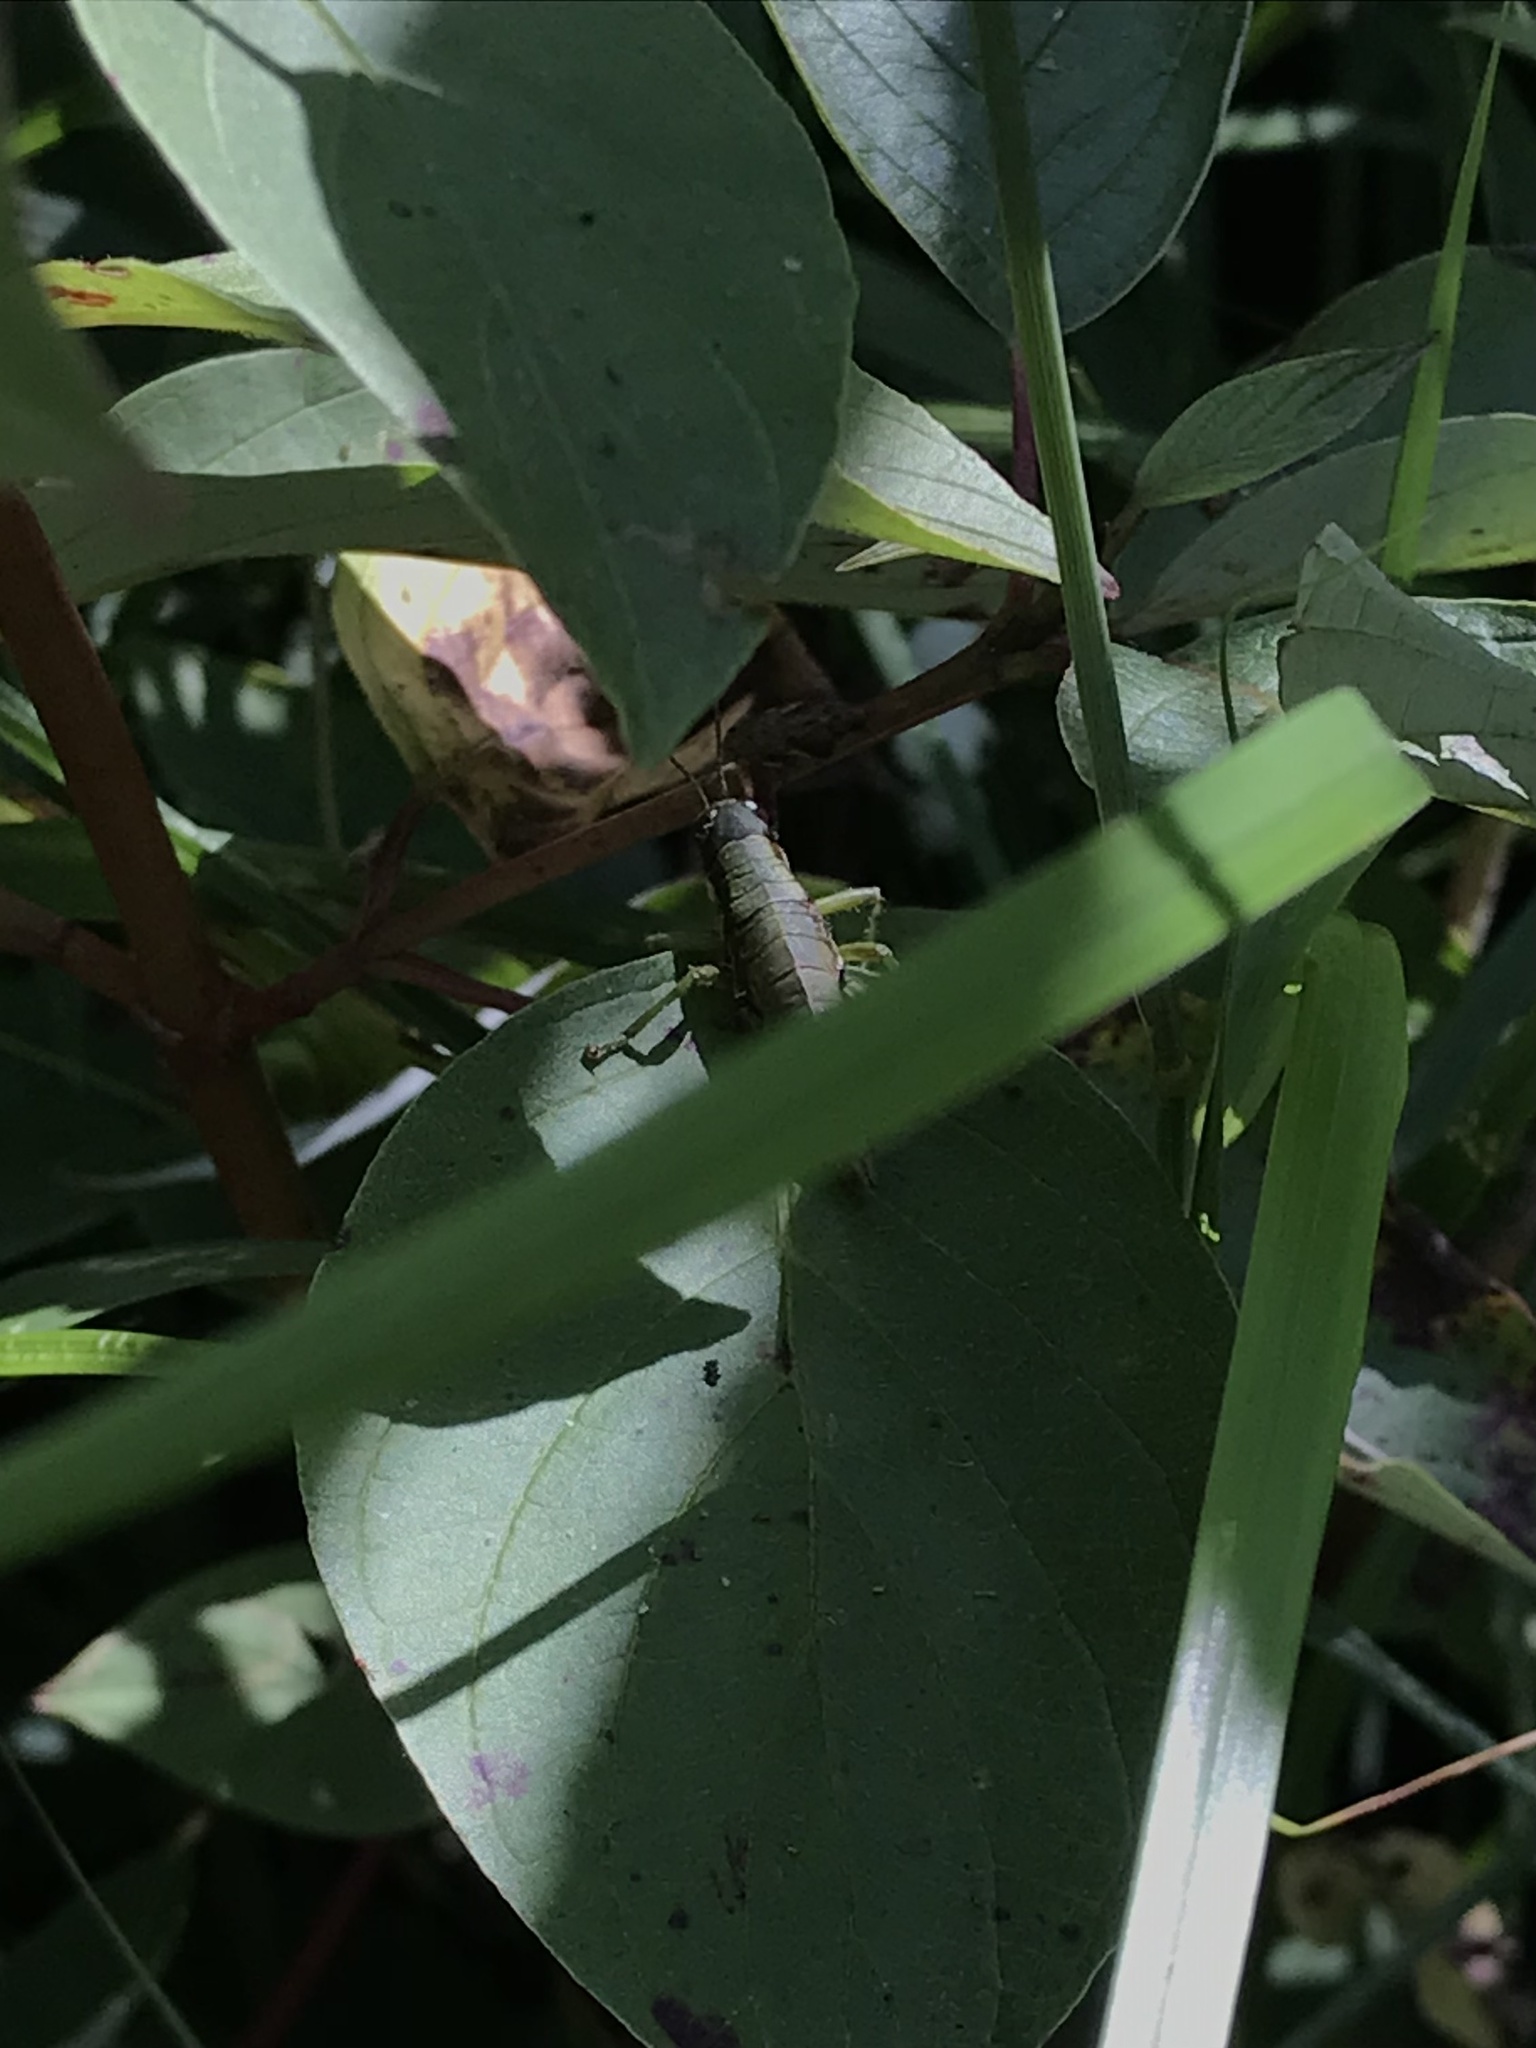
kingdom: Animalia
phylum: Arthropoda
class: Insecta
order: Orthoptera
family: Acrididae
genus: Booneacris
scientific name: Booneacris glacialis
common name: Wingless mountain grasshopper
